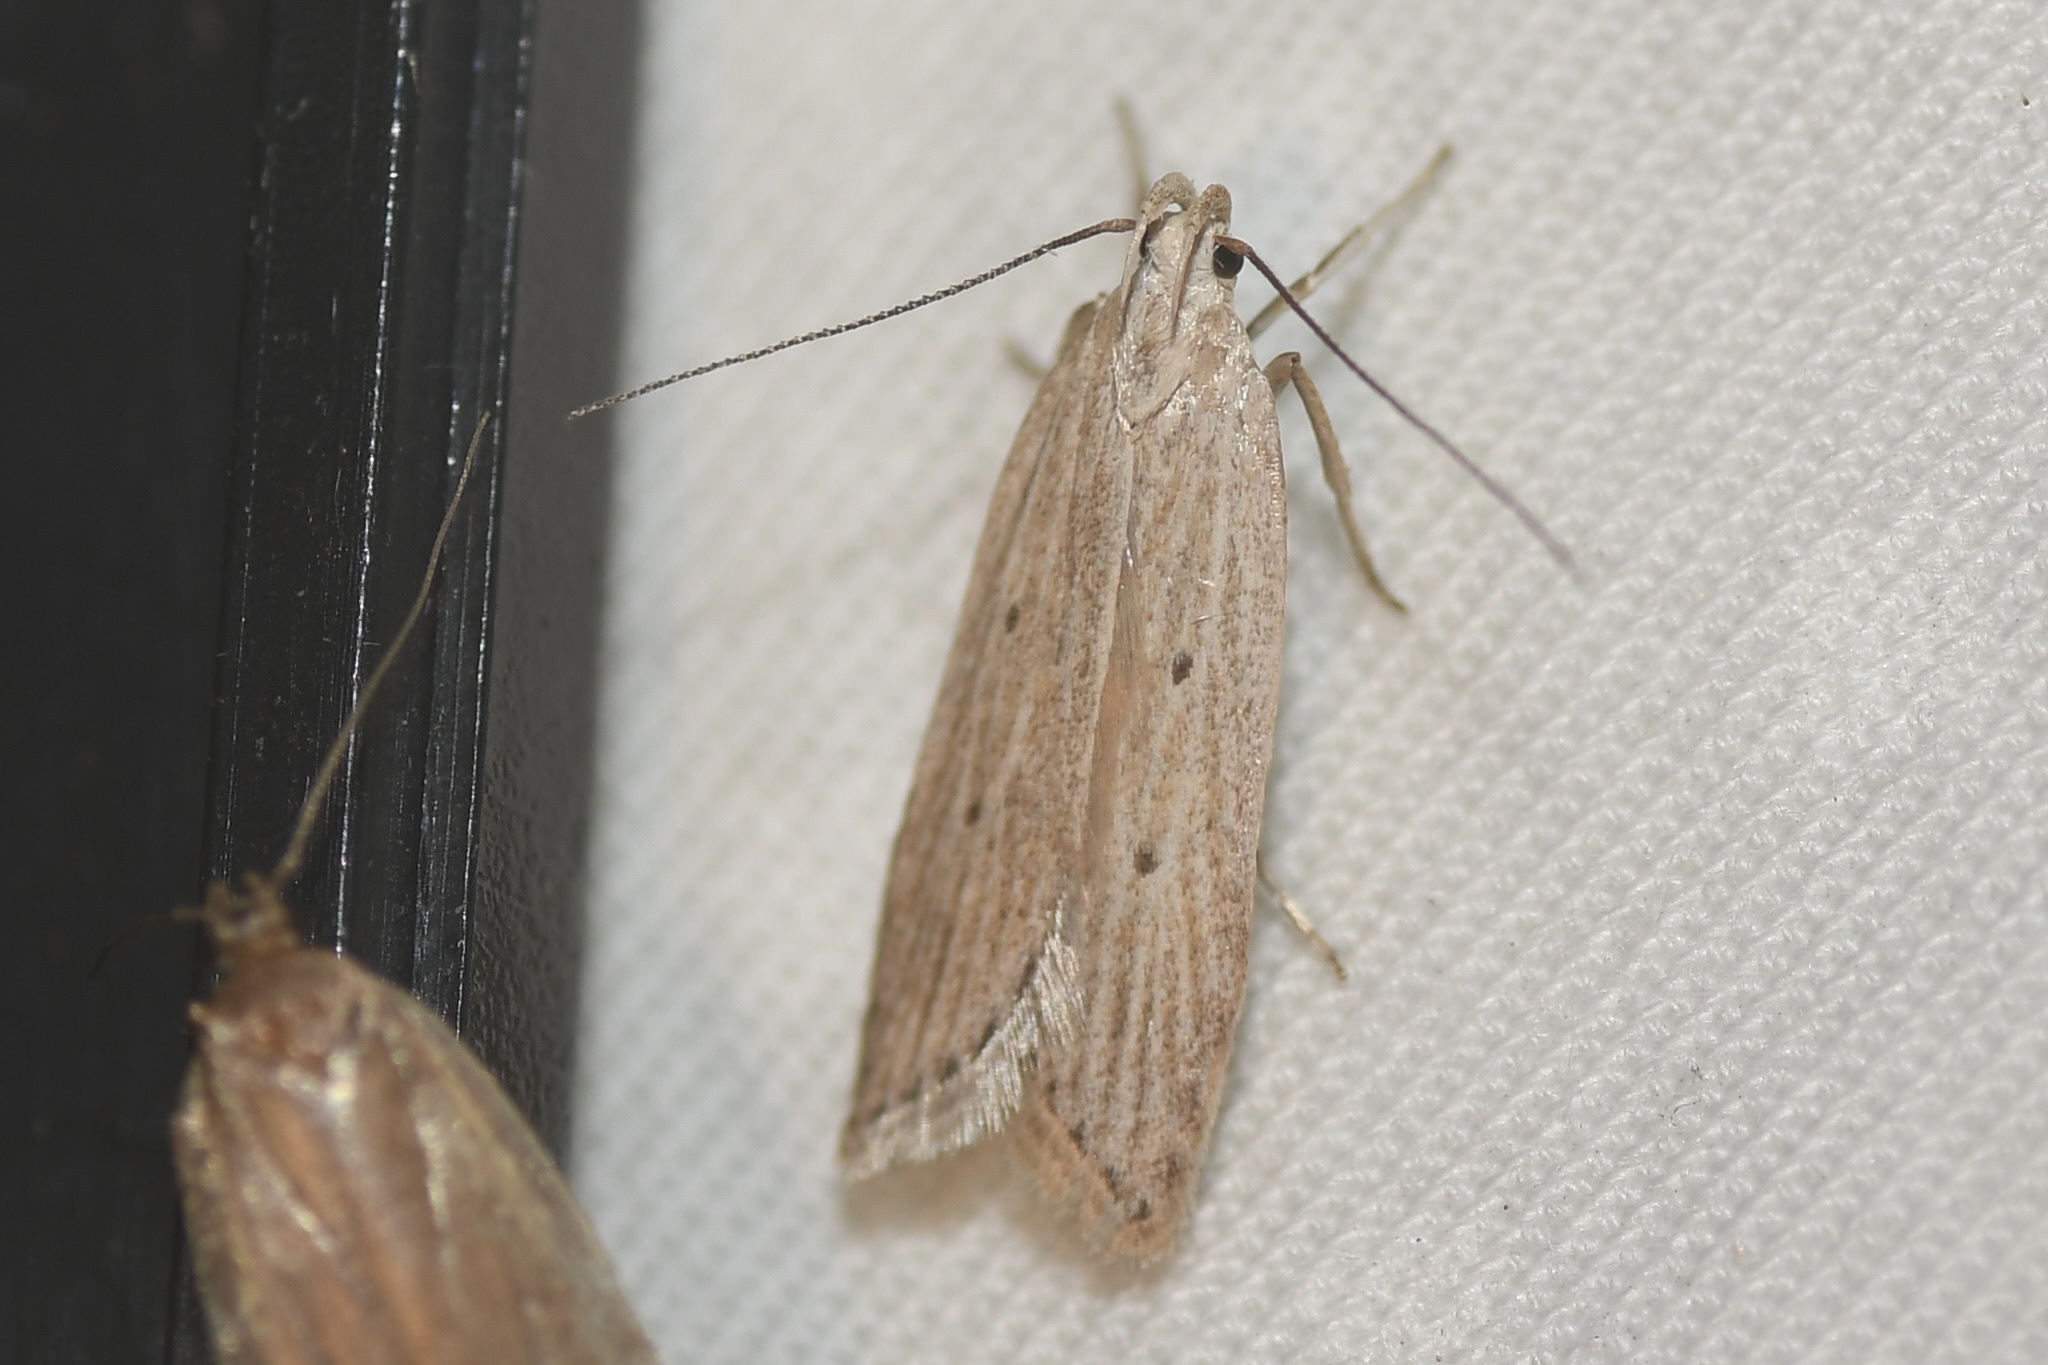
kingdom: Animalia
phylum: Arthropoda
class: Insecta
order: Lepidoptera
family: Gelechiidae
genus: Helcystogramma
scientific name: Helcystogramma fernaldella
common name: Fernald's helcystogramma moth
